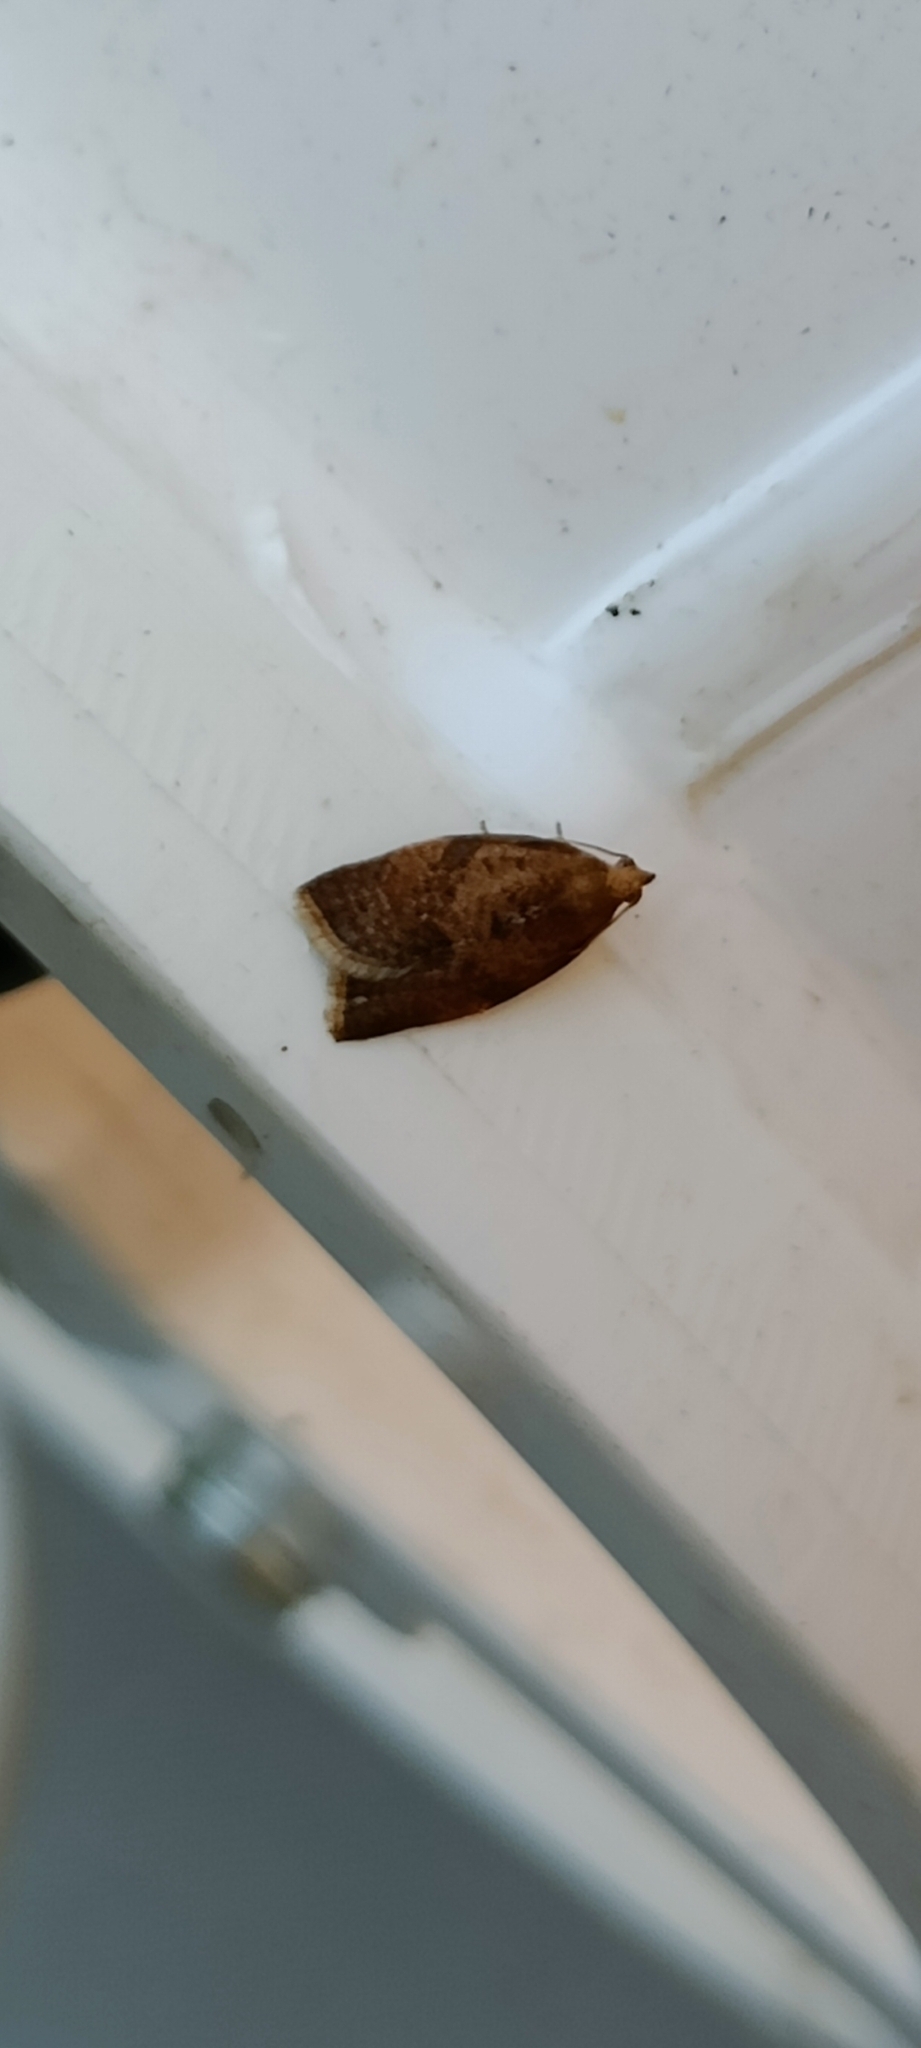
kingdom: Animalia
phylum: Arthropoda
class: Insecta
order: Lepidoptera
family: Tortricidae
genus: Clepsis
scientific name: Clepsis consimilana
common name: Privet tortrix
